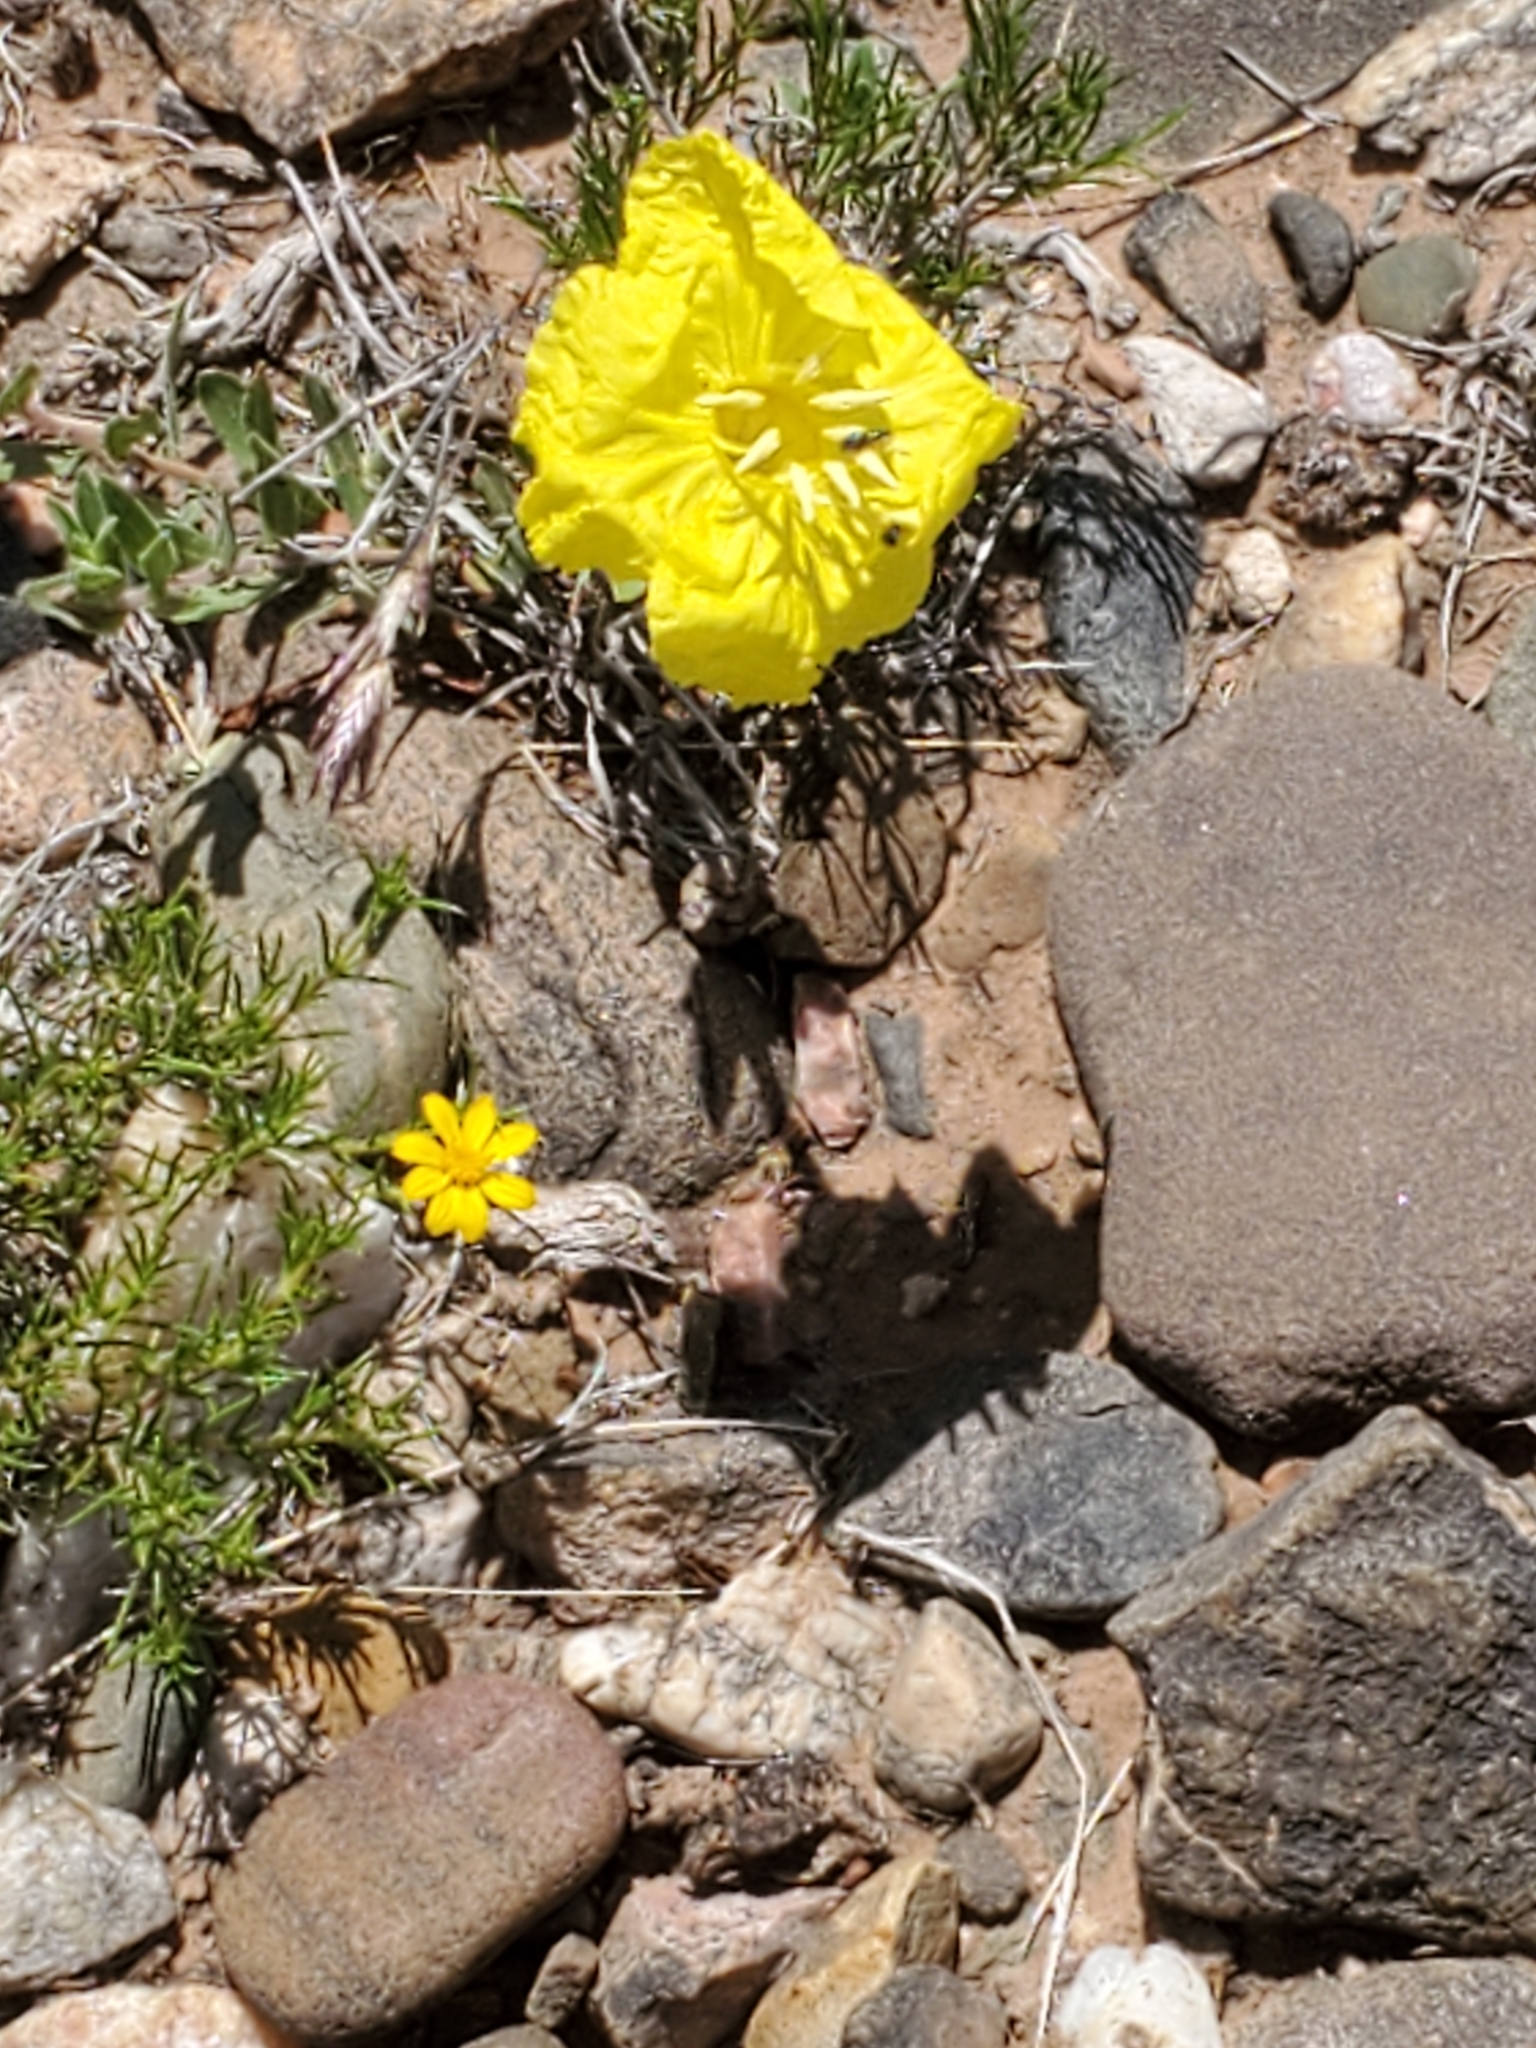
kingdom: Plantae
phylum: Tracheophyta
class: Magnoliopsida
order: Myrtales
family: Onagraceae
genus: Oenothera
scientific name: Oenothera hartwegii
